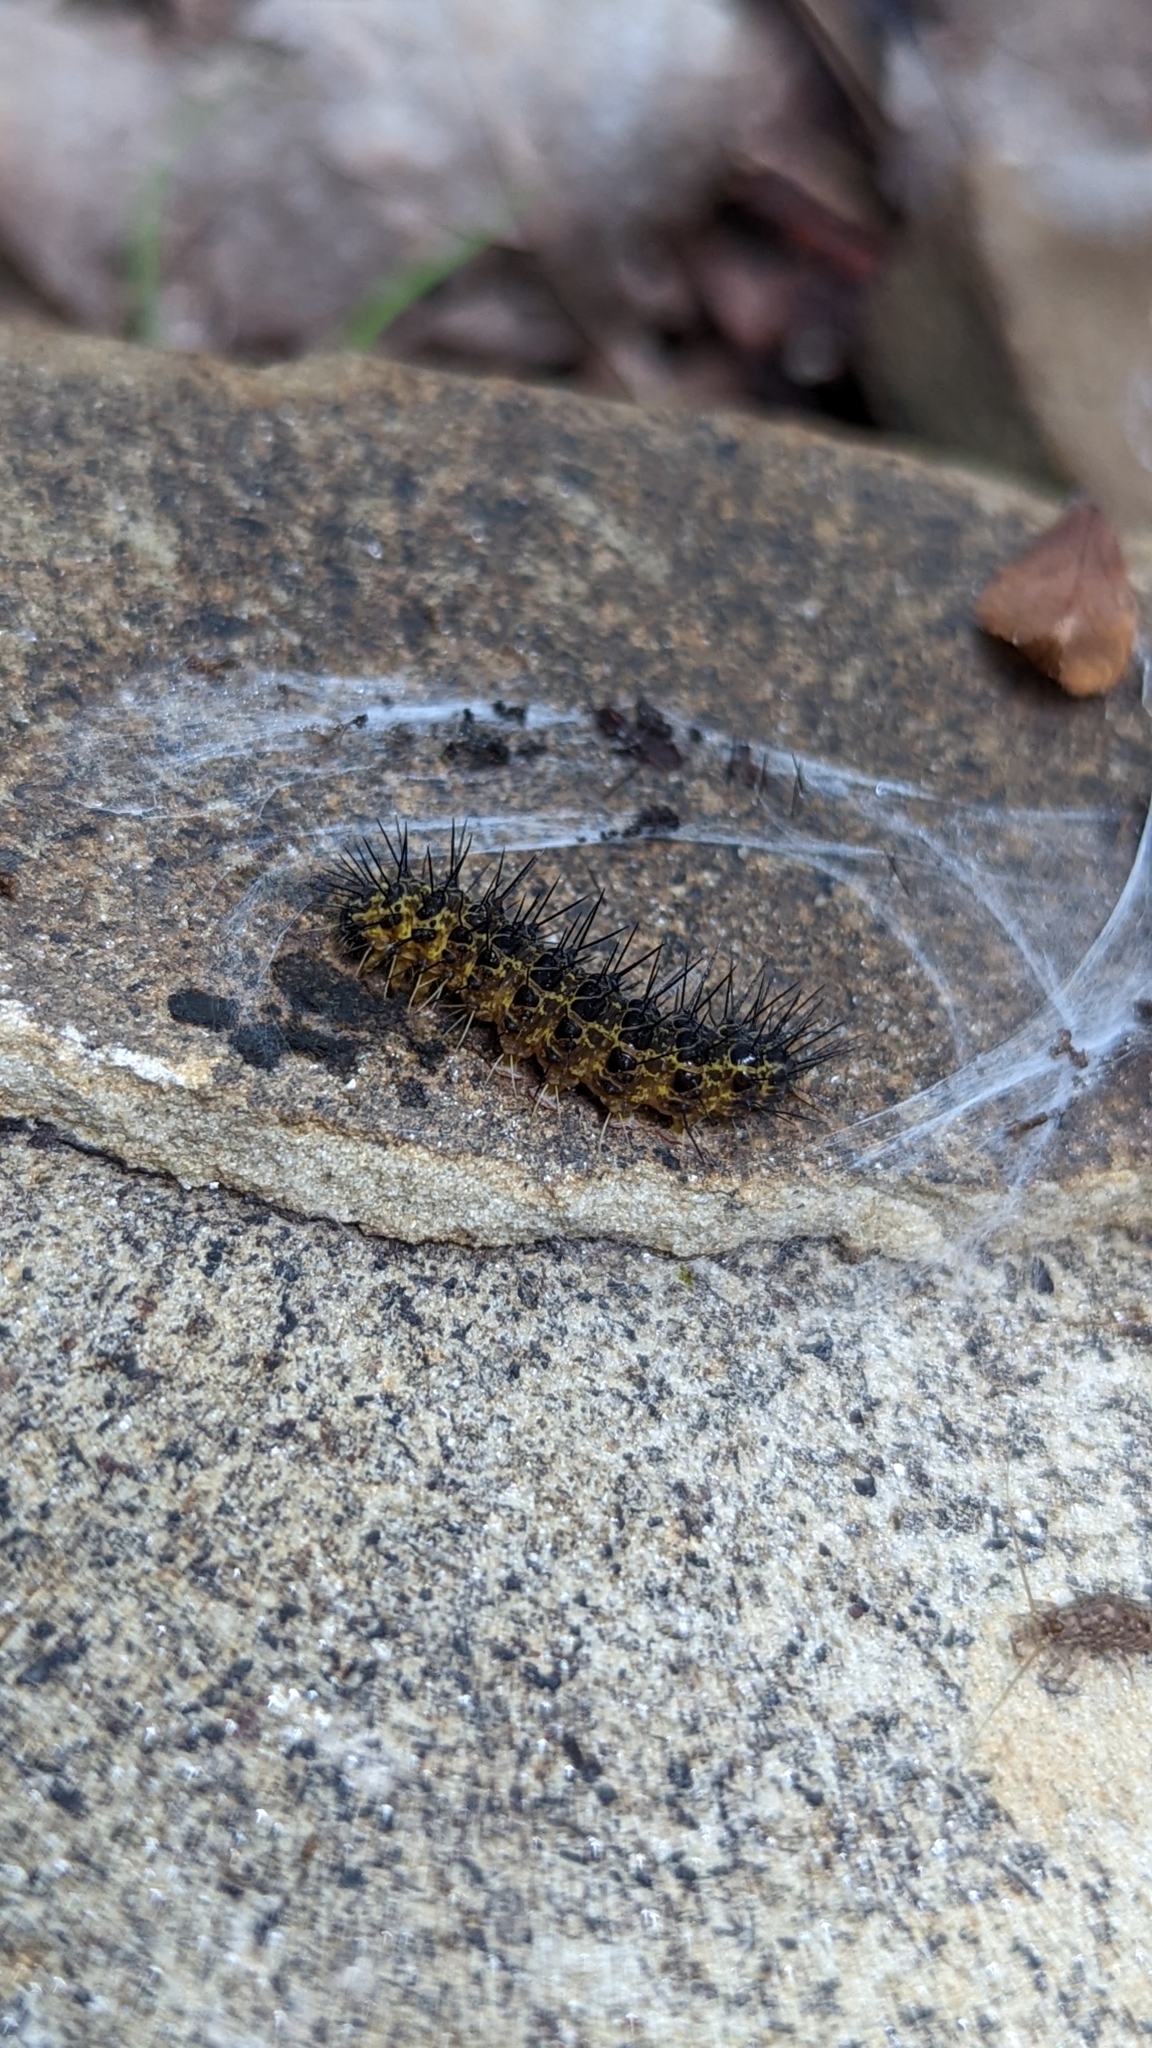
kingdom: Animalia
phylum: Arthropoda
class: Insecta
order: Lepidoptera
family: Erebidae
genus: Hypoprepia
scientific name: Hypoprepia miniata
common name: Scarlet-winged lichen moth
